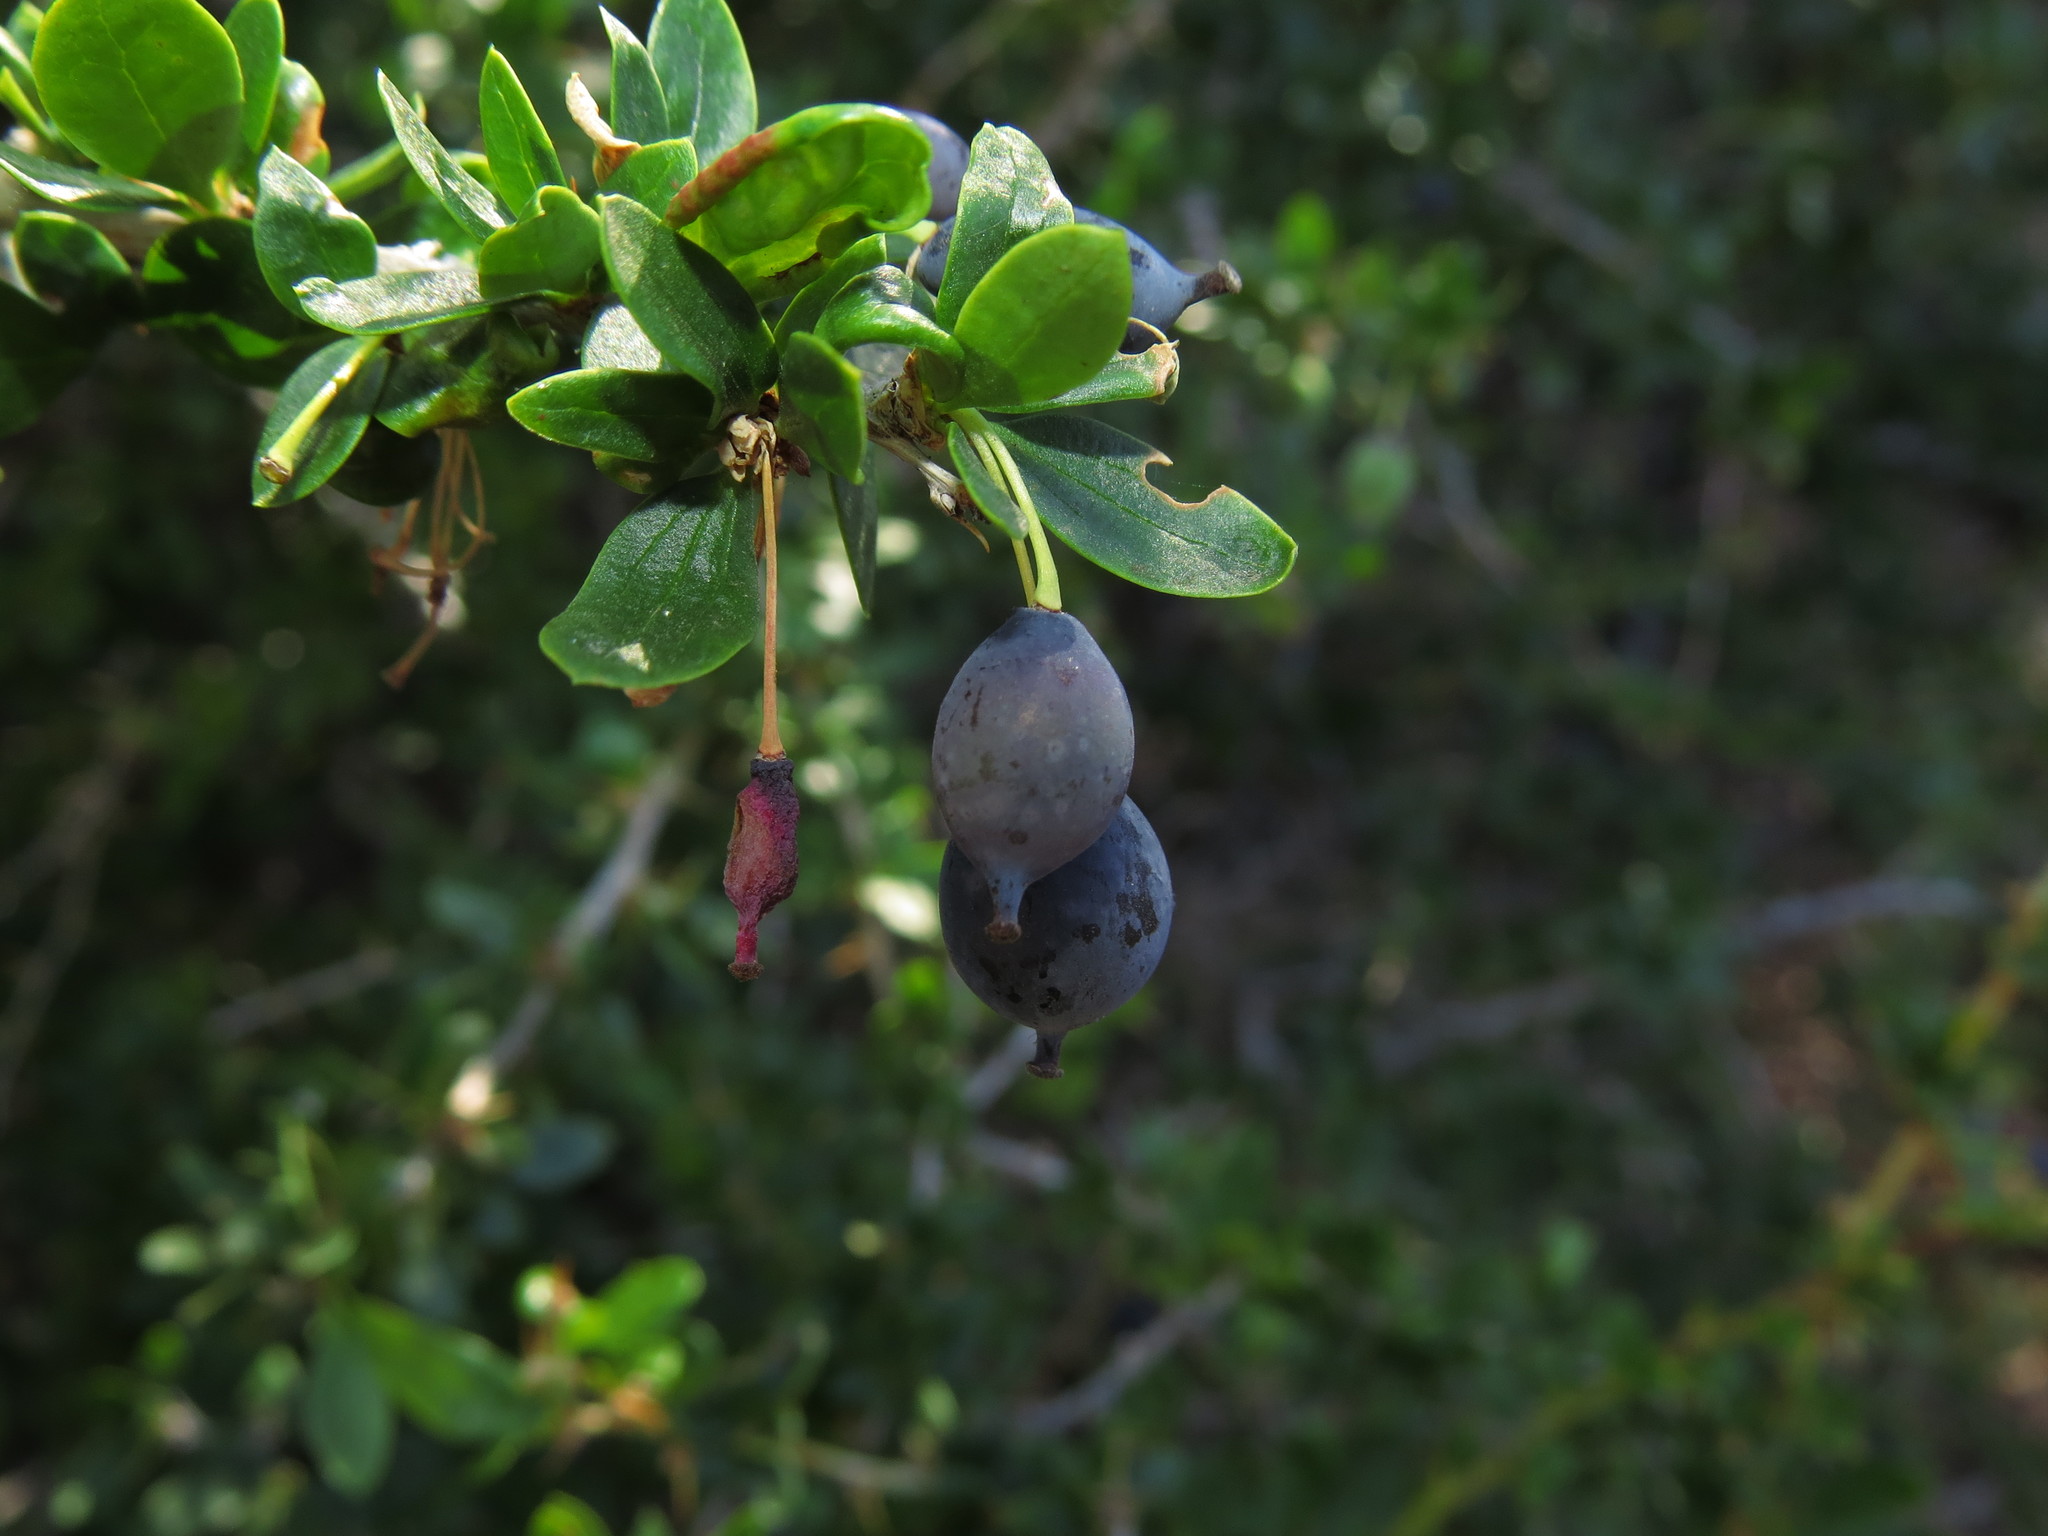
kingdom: Plantae
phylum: Tracheophyta
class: Magnoliopsida
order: Ranunculales
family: Berberidaceae
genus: Berberis
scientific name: Berberis montana
